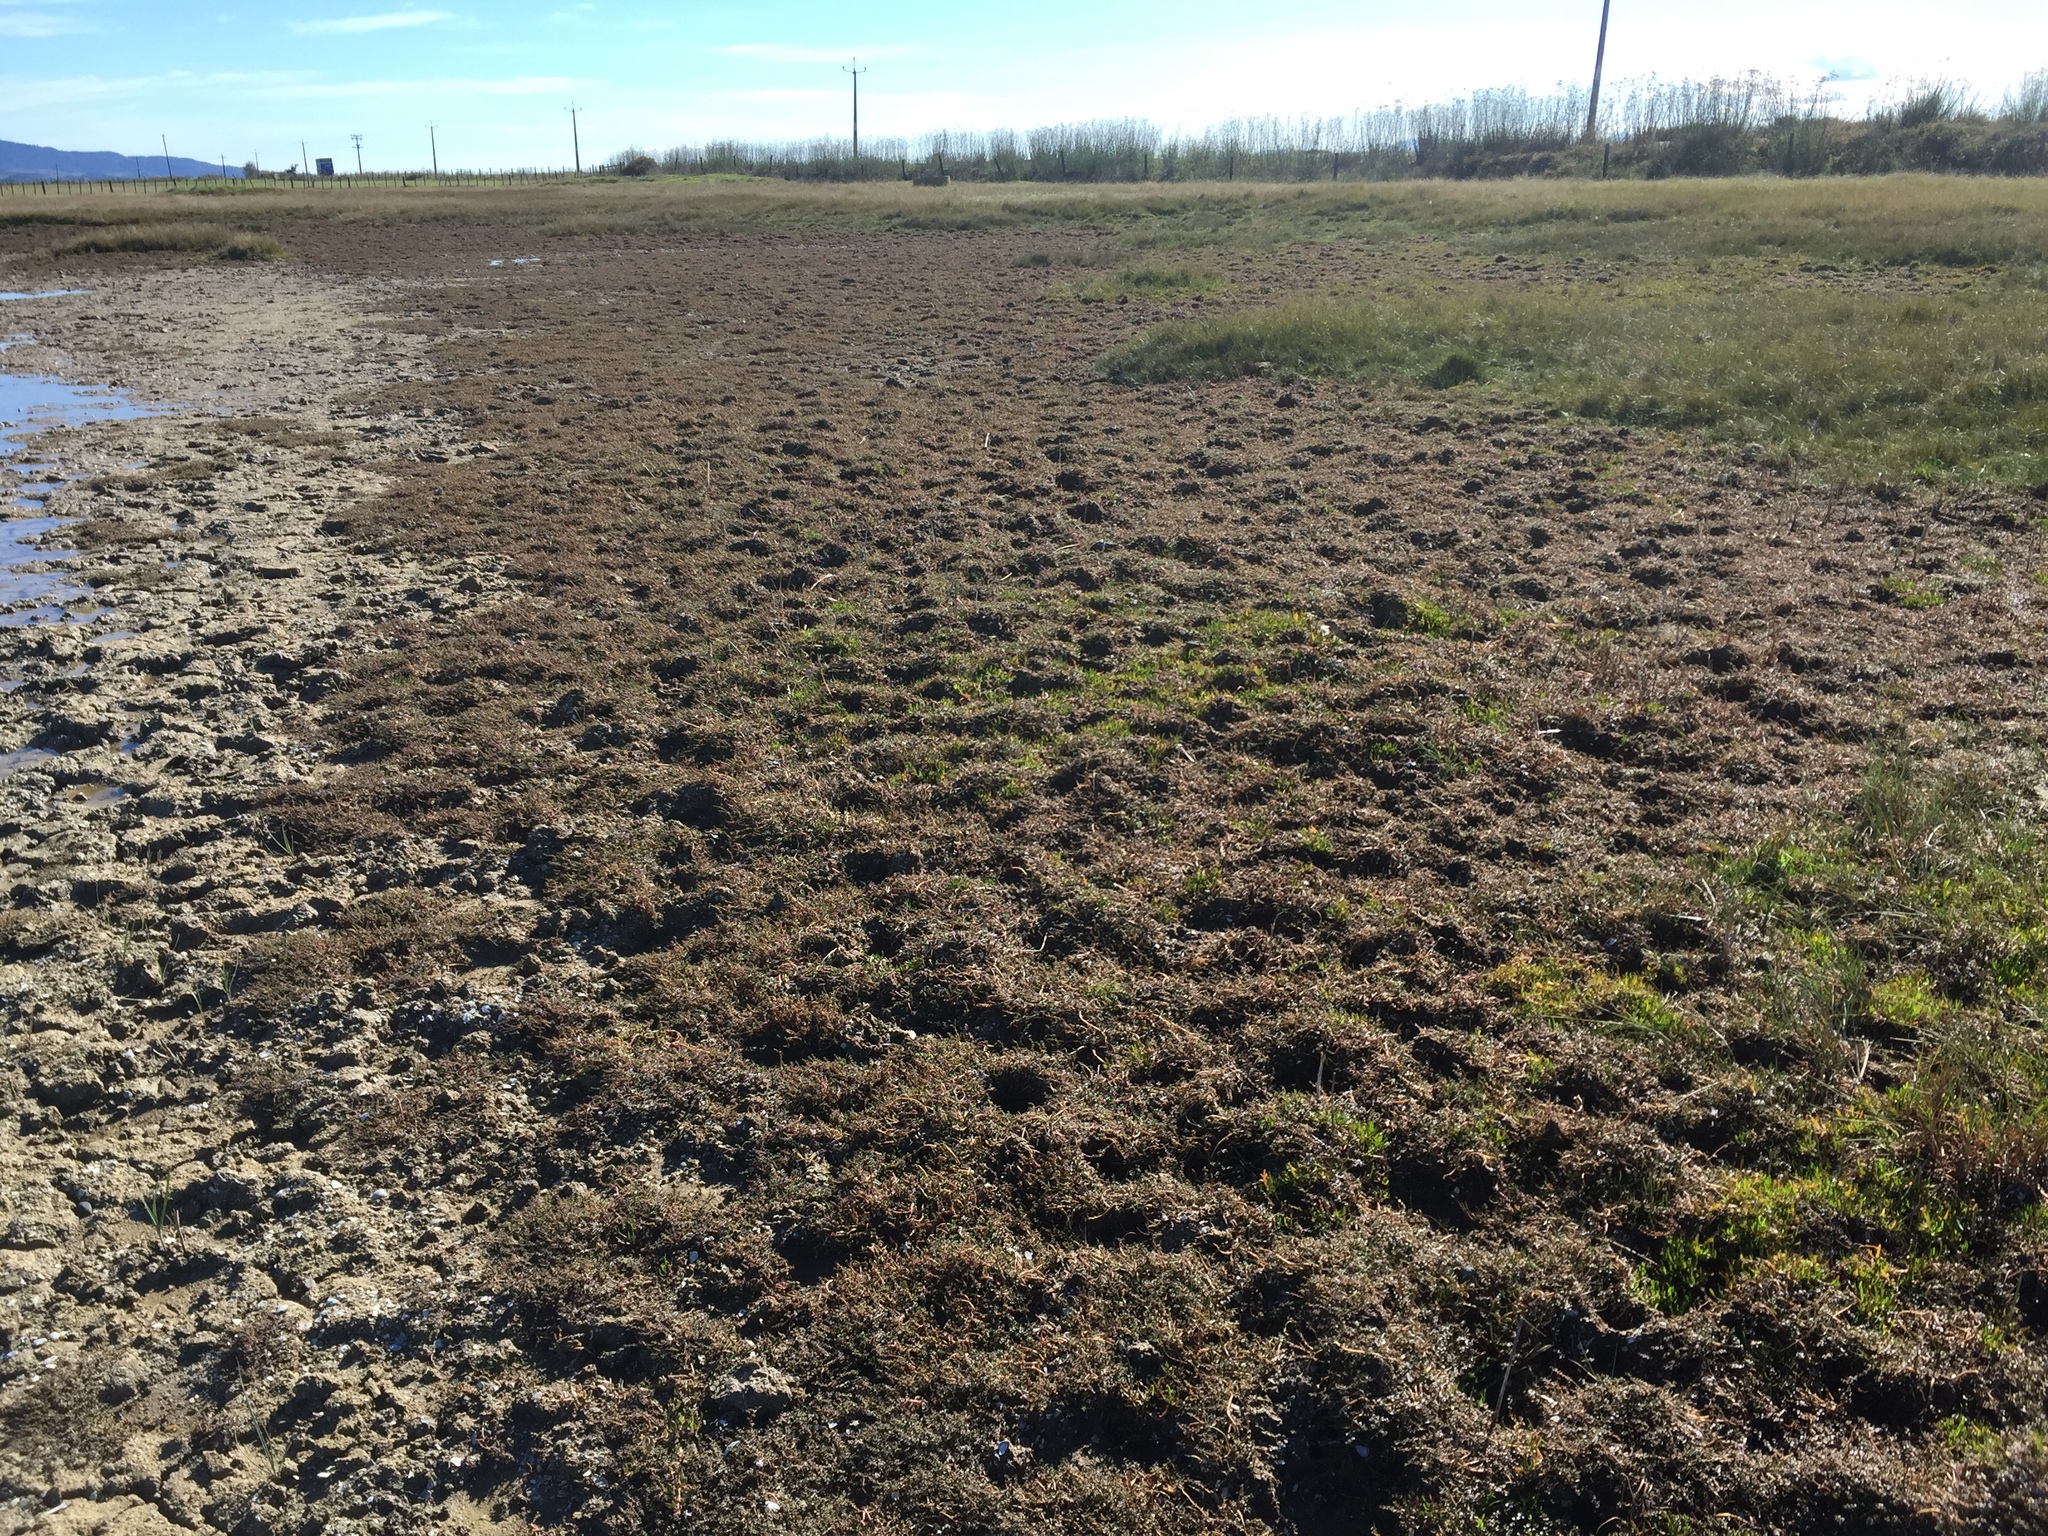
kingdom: Plantae
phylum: Tracheophyta
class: Magnoliopsida
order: Lamiales
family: Phrymaceae
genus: Thyridia
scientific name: Thyridia repens
